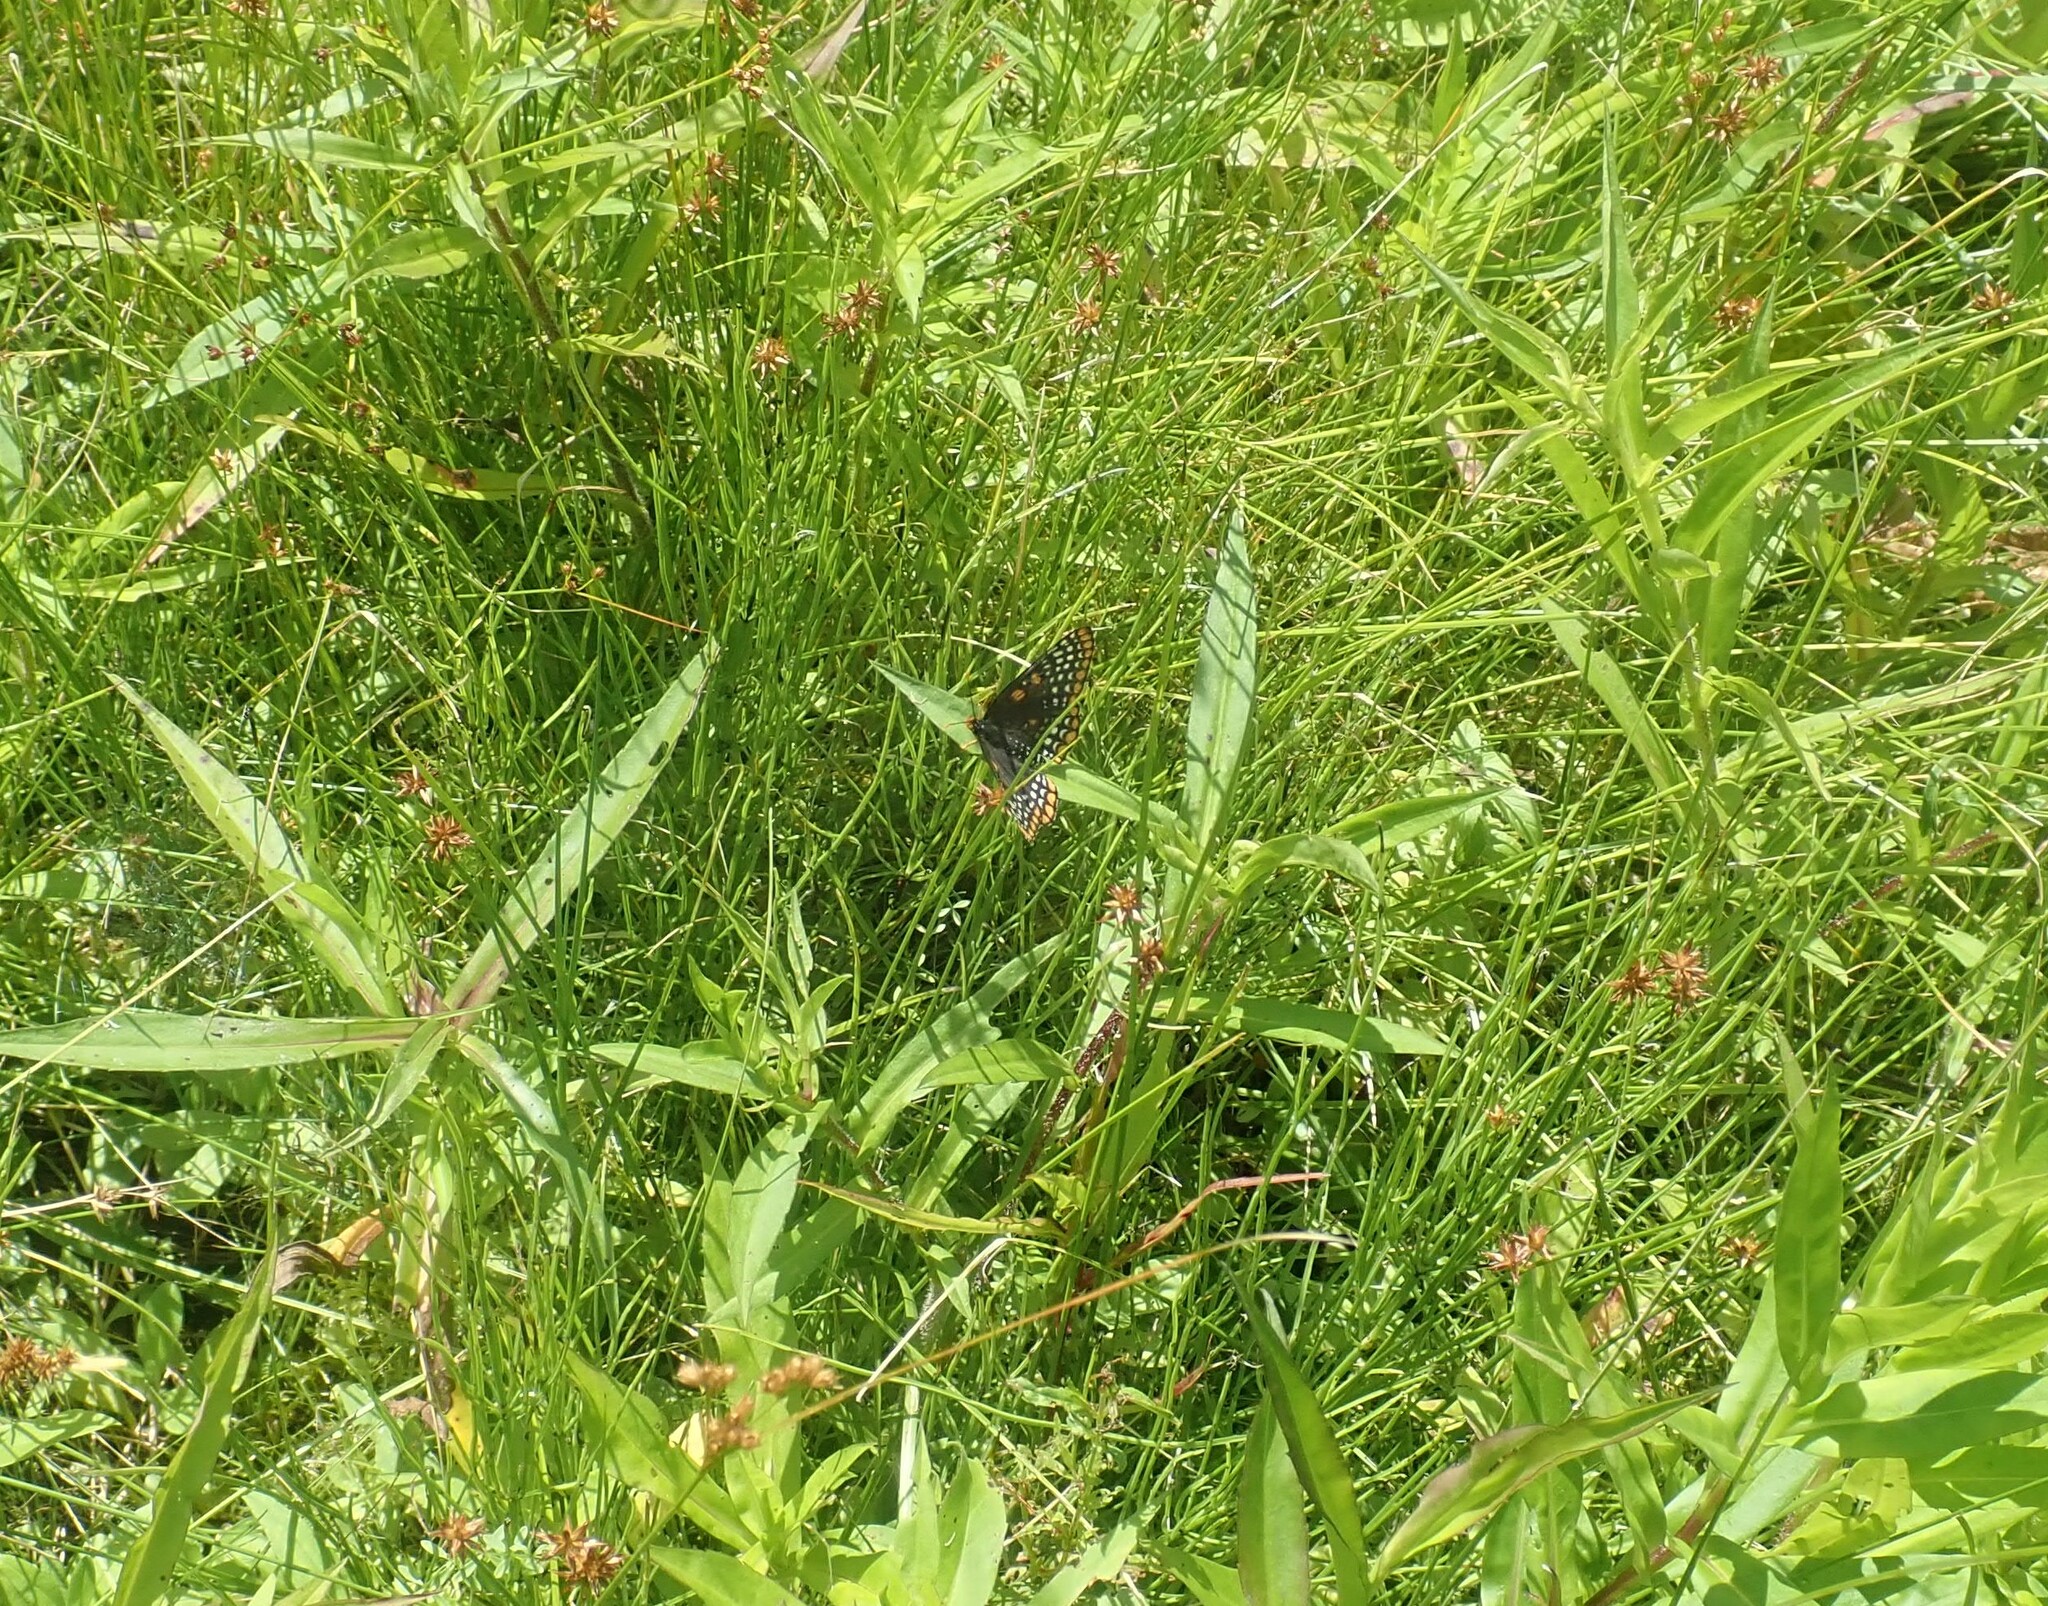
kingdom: Animalia
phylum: Arthropoda
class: Insecta
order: Lepidoptera
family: Nymphalidae
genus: Euphydryas
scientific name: Euphydryas phaeton
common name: Baltimore checkerspot
